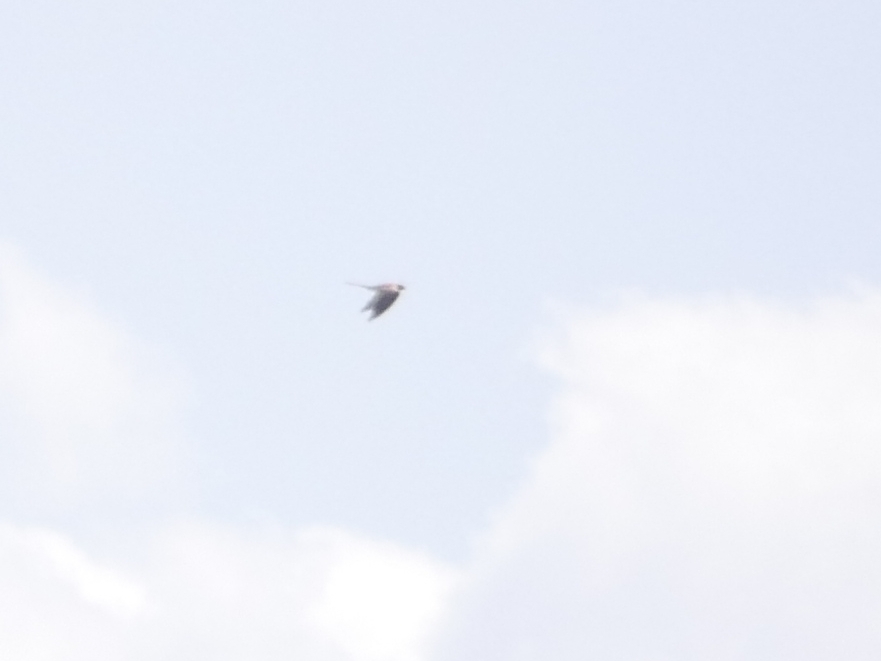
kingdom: Animalia
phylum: Chordata
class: Aves
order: Falconiformes
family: Falconidae
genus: Falco
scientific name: Falco tinnunculus
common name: Common kestrel
